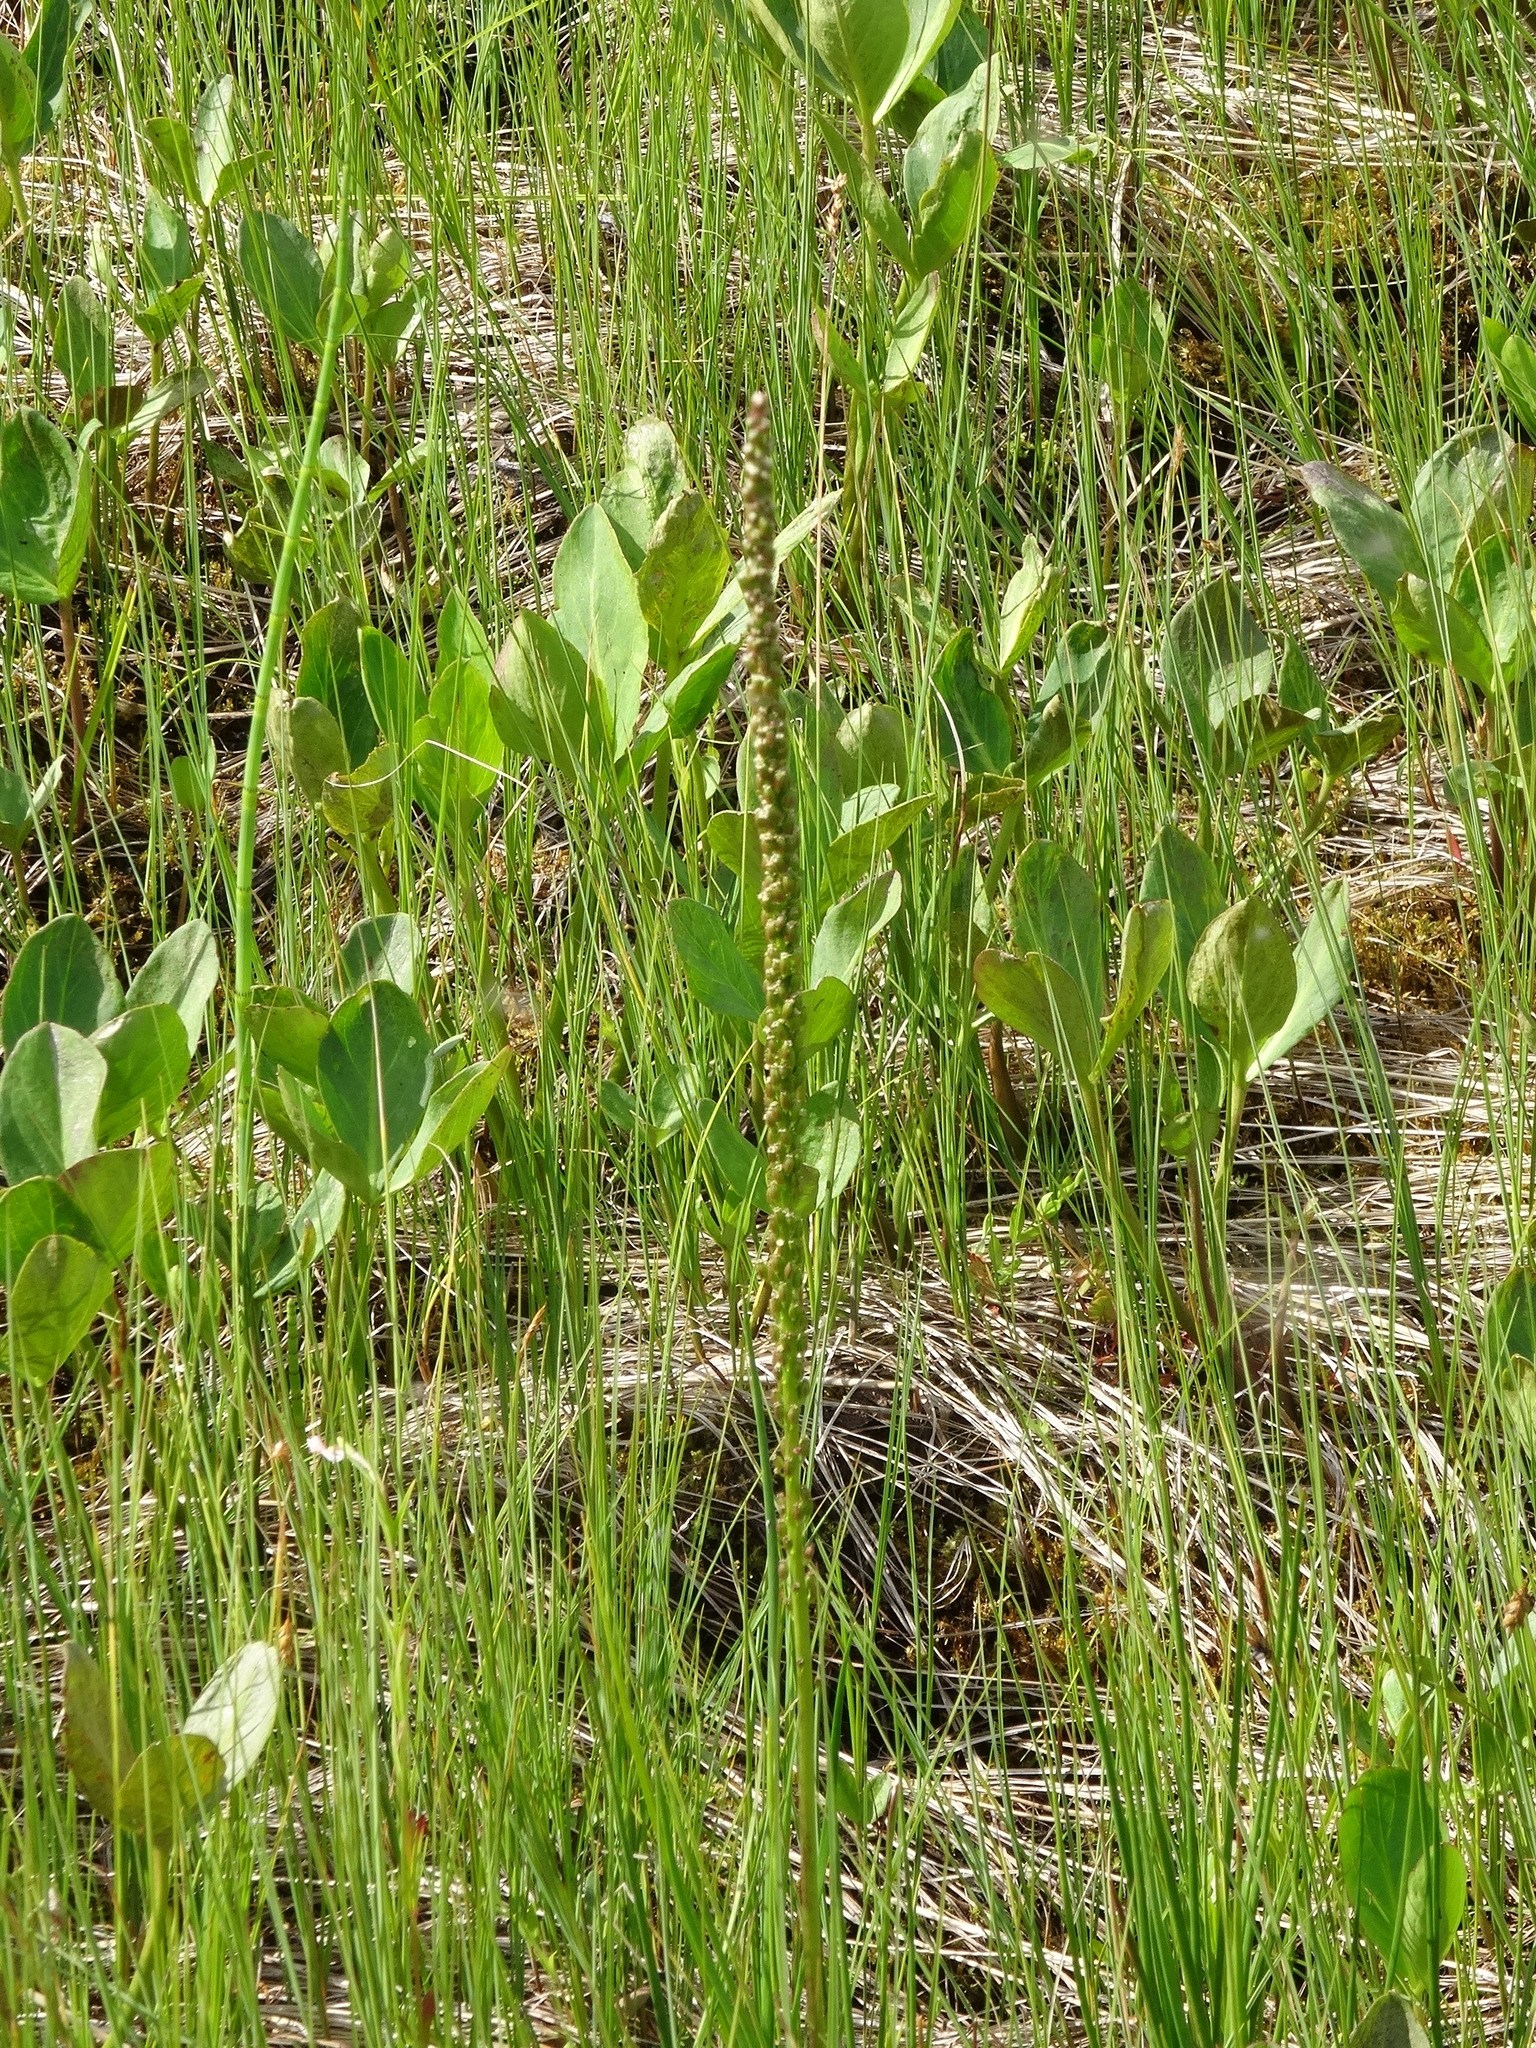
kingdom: Plantae
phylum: Tracheophyta
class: Liliopsida
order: Alismatales
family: Juncaginaceae
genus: Triglochin
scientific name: Triglochin maritima
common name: Sea arrowgrass
